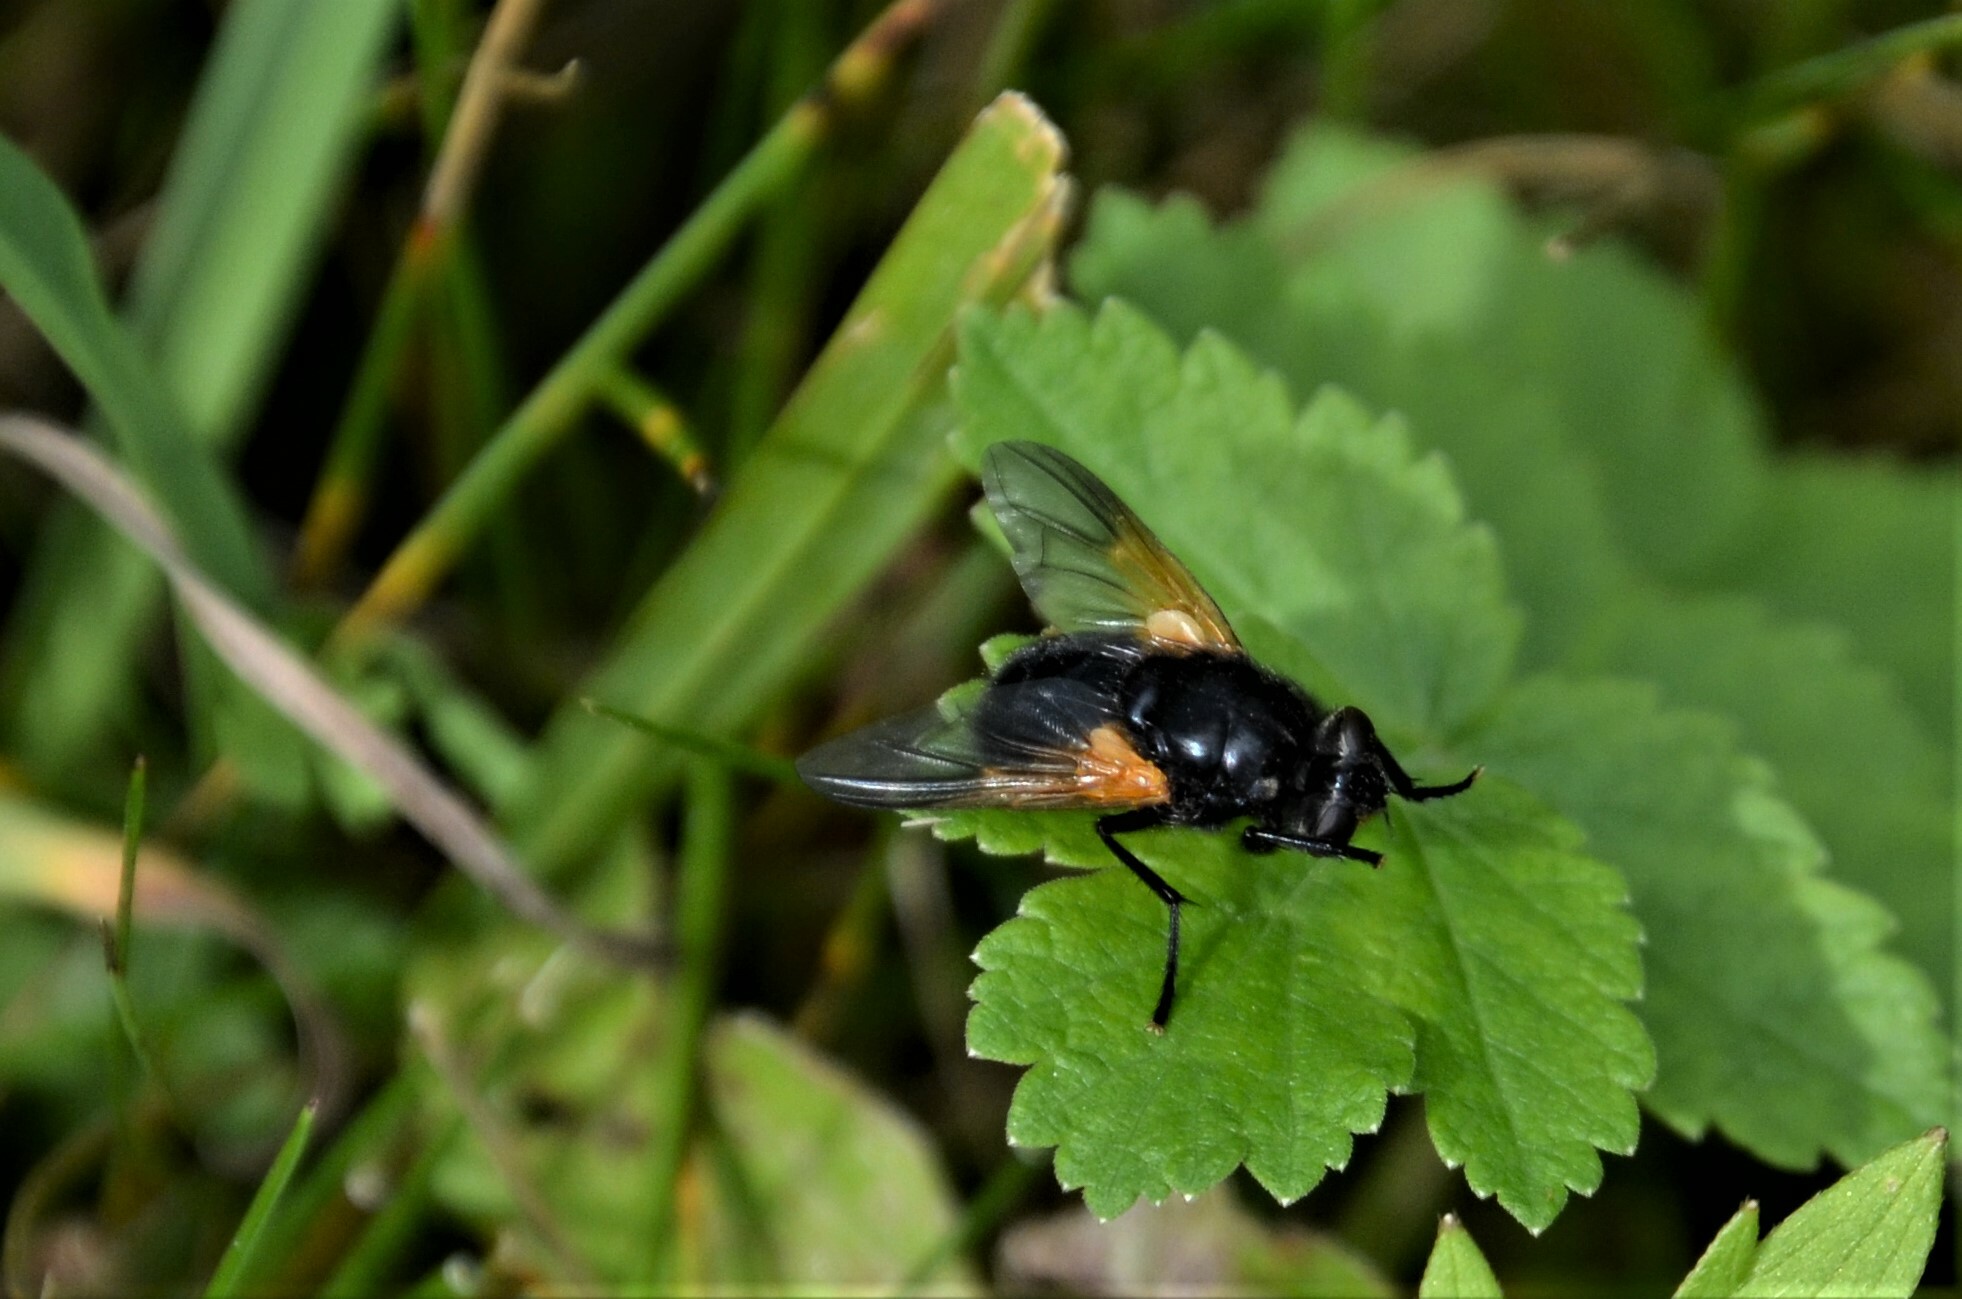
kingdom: Animalia
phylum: Arthropoda
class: Insecta
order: Diptera
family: Muscidae
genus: Mesembrina
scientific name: Mesembrina meridiana
